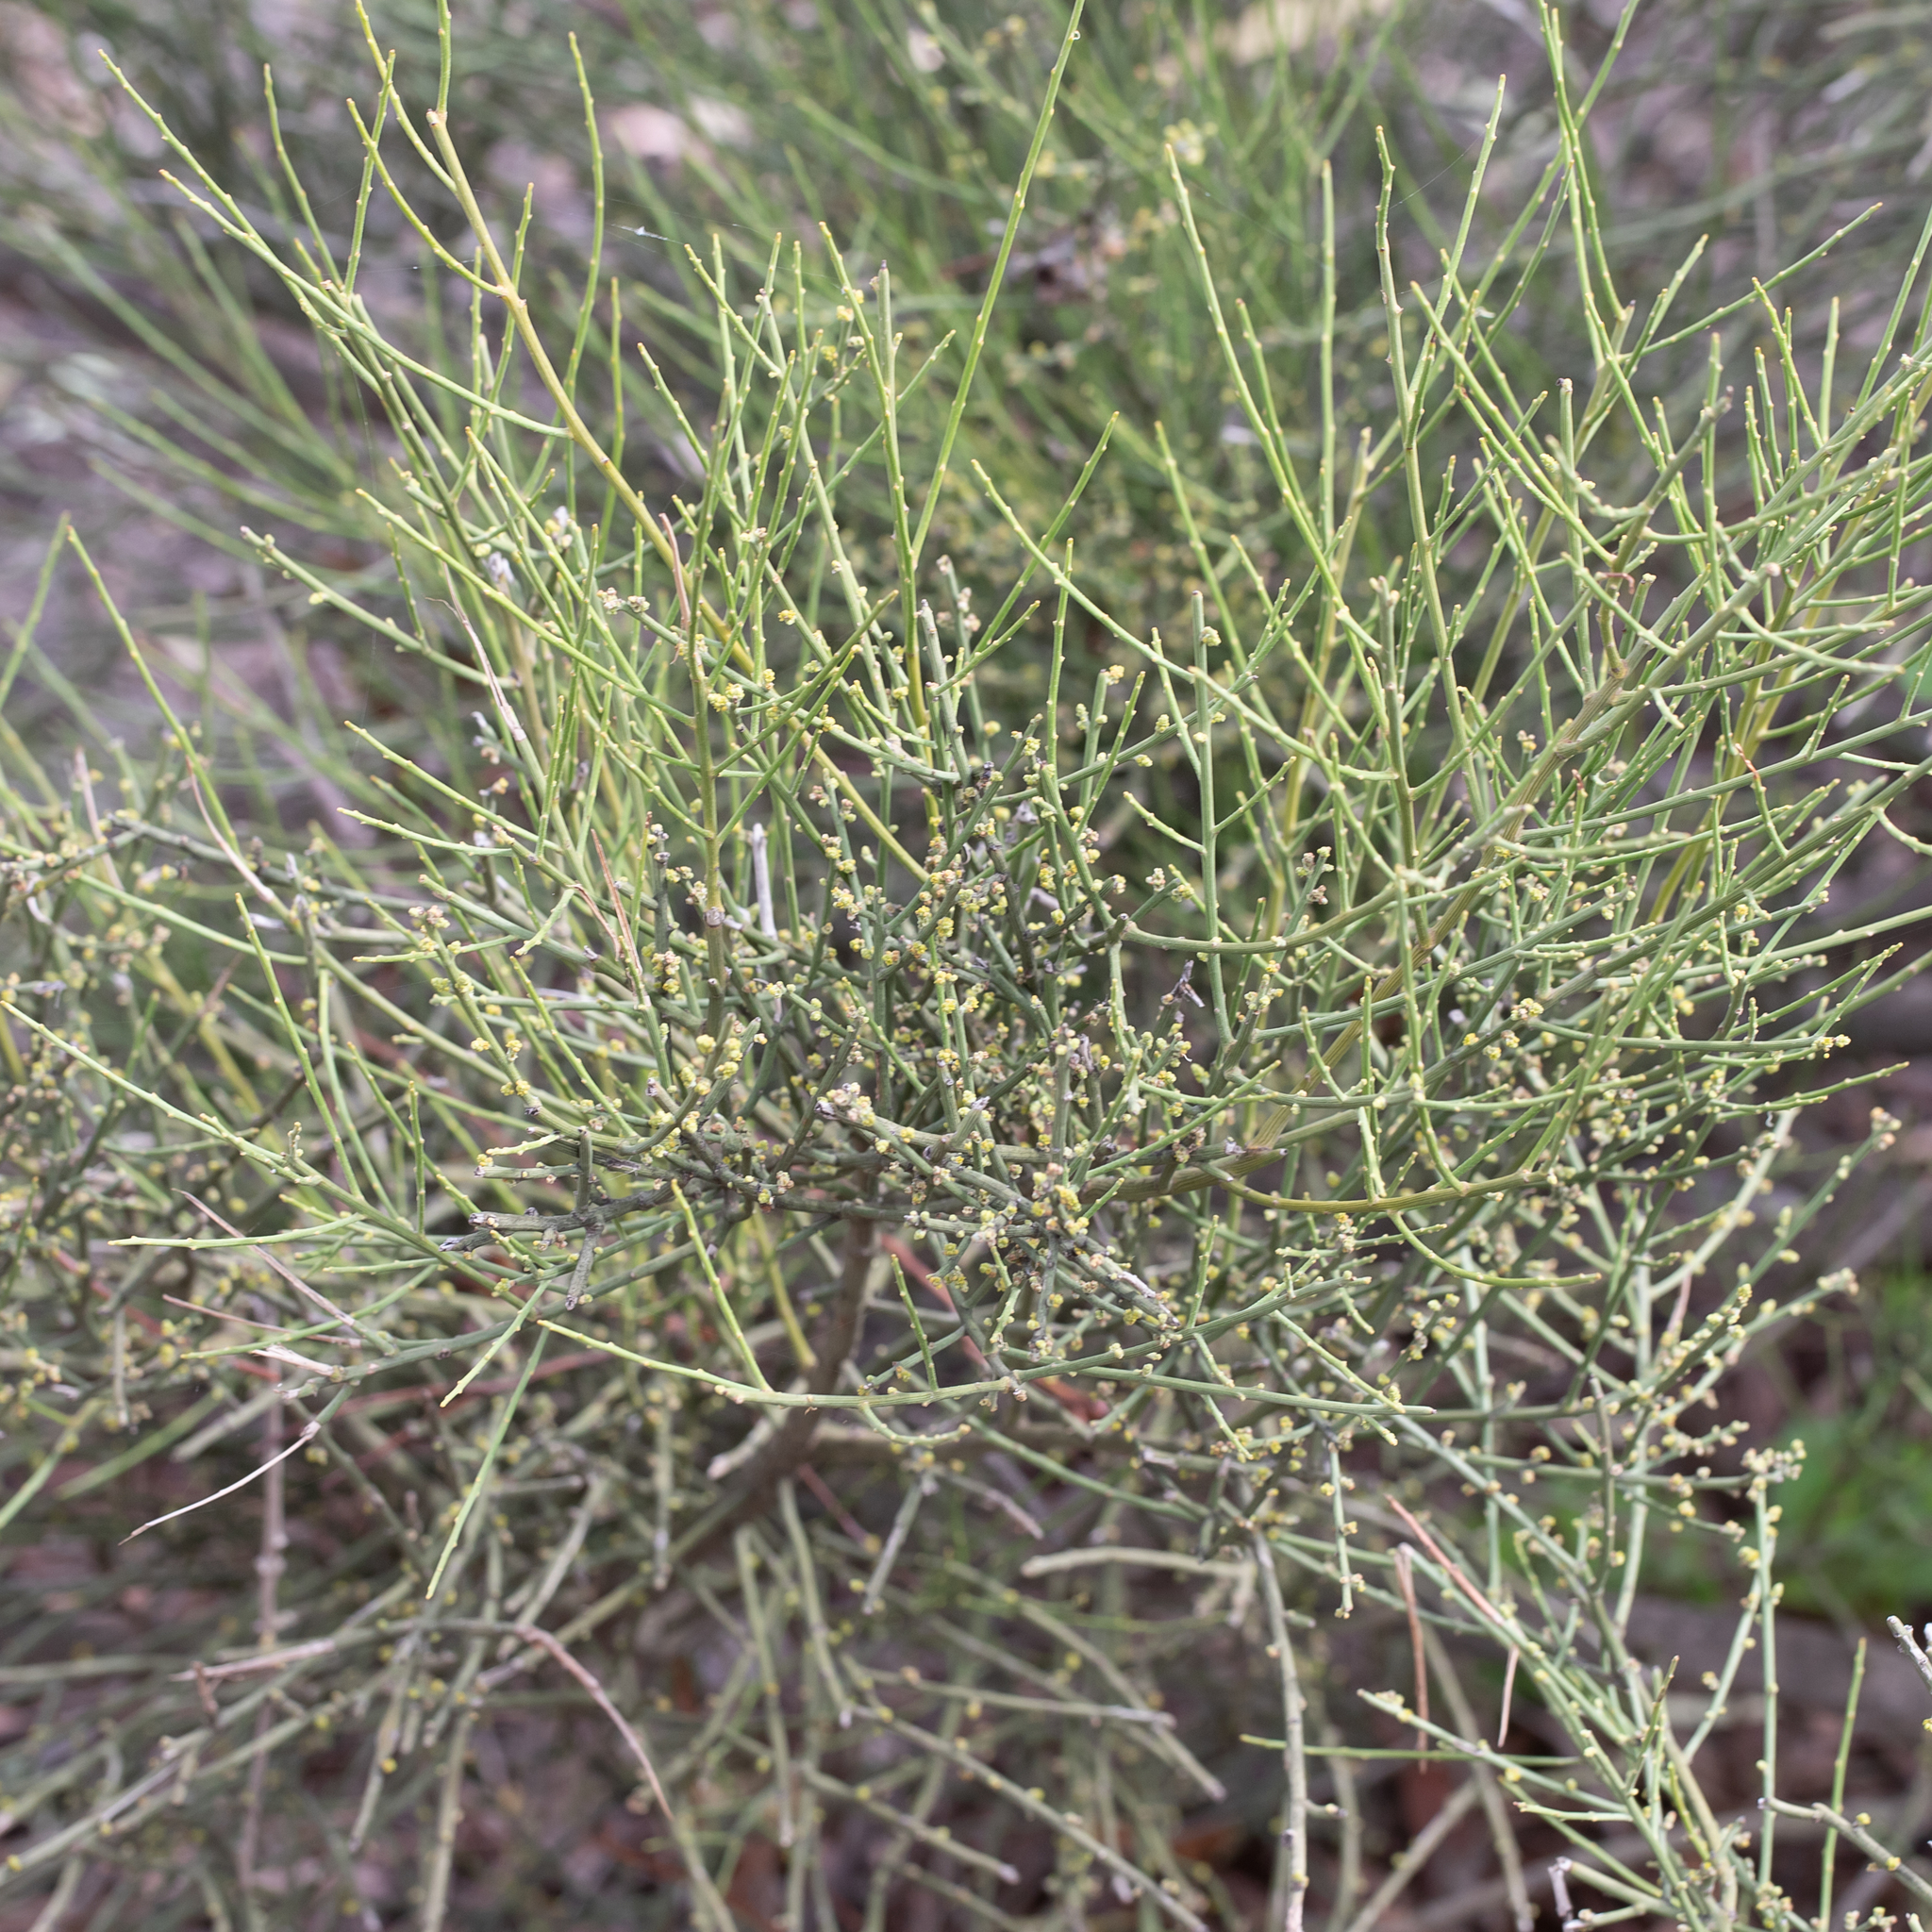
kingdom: Plantae
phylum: Tracheophyta
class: Magnoliopsida
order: Santalales
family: Santalaceae
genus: Exocarpos
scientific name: Exocarpos aphyllus
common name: Leafless ballart
